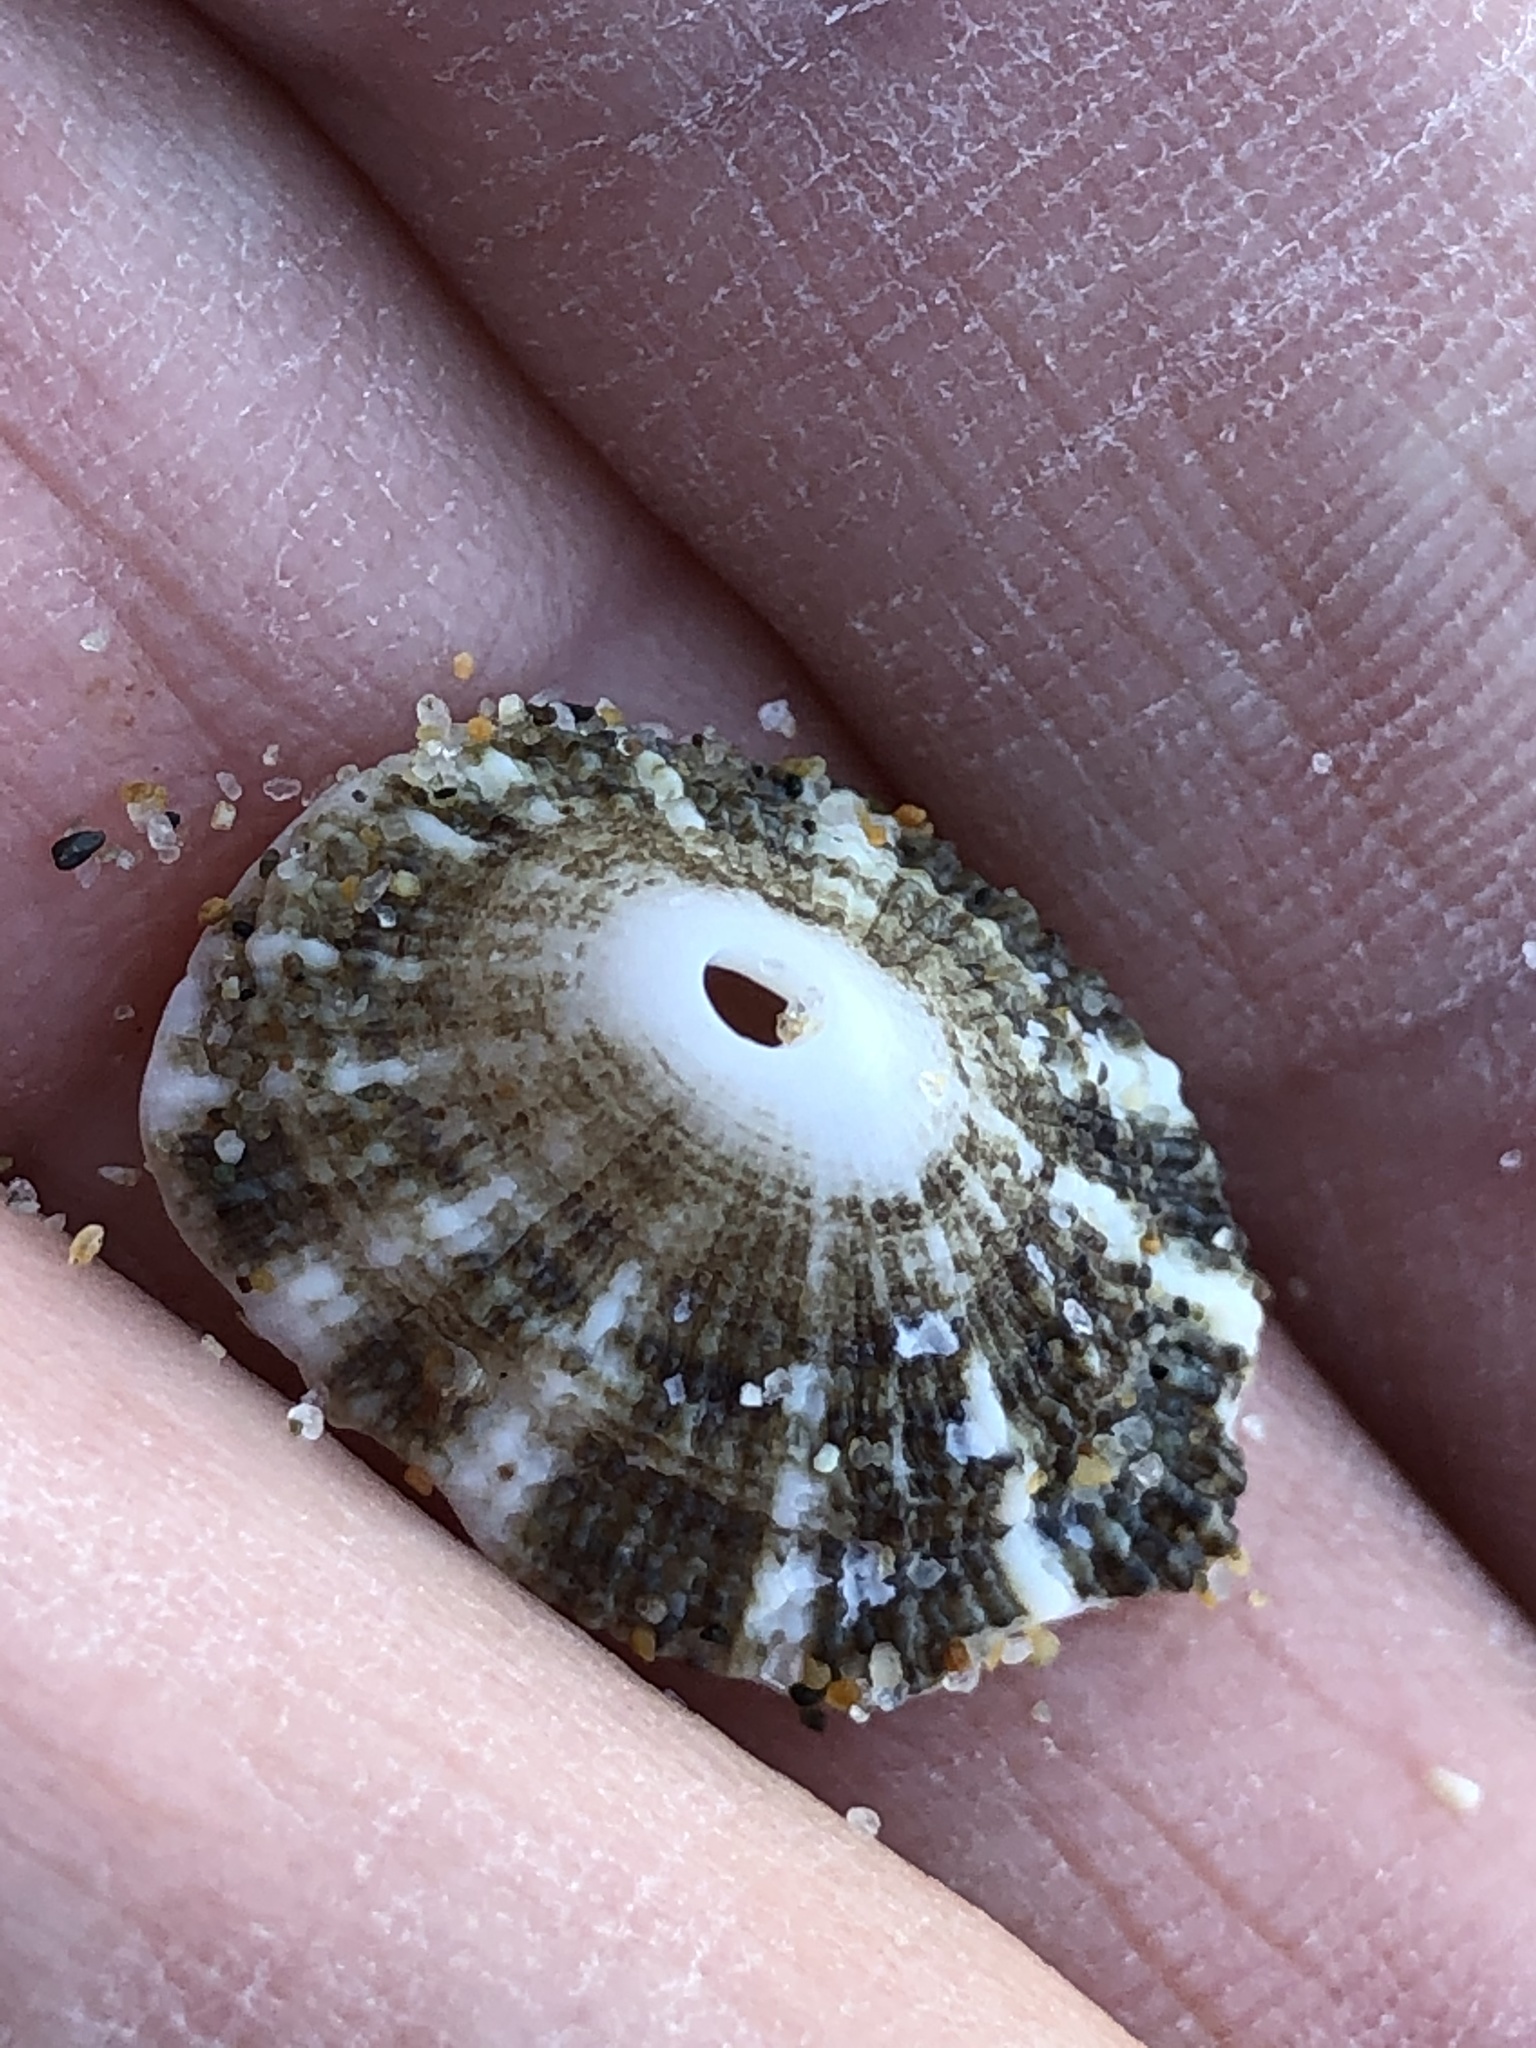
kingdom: Animalia
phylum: Mollusca
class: Gastropoda
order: Lepetellida
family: Fissurellidae
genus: Diodora
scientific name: Diodora aspera
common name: Rough keyhole limpet
